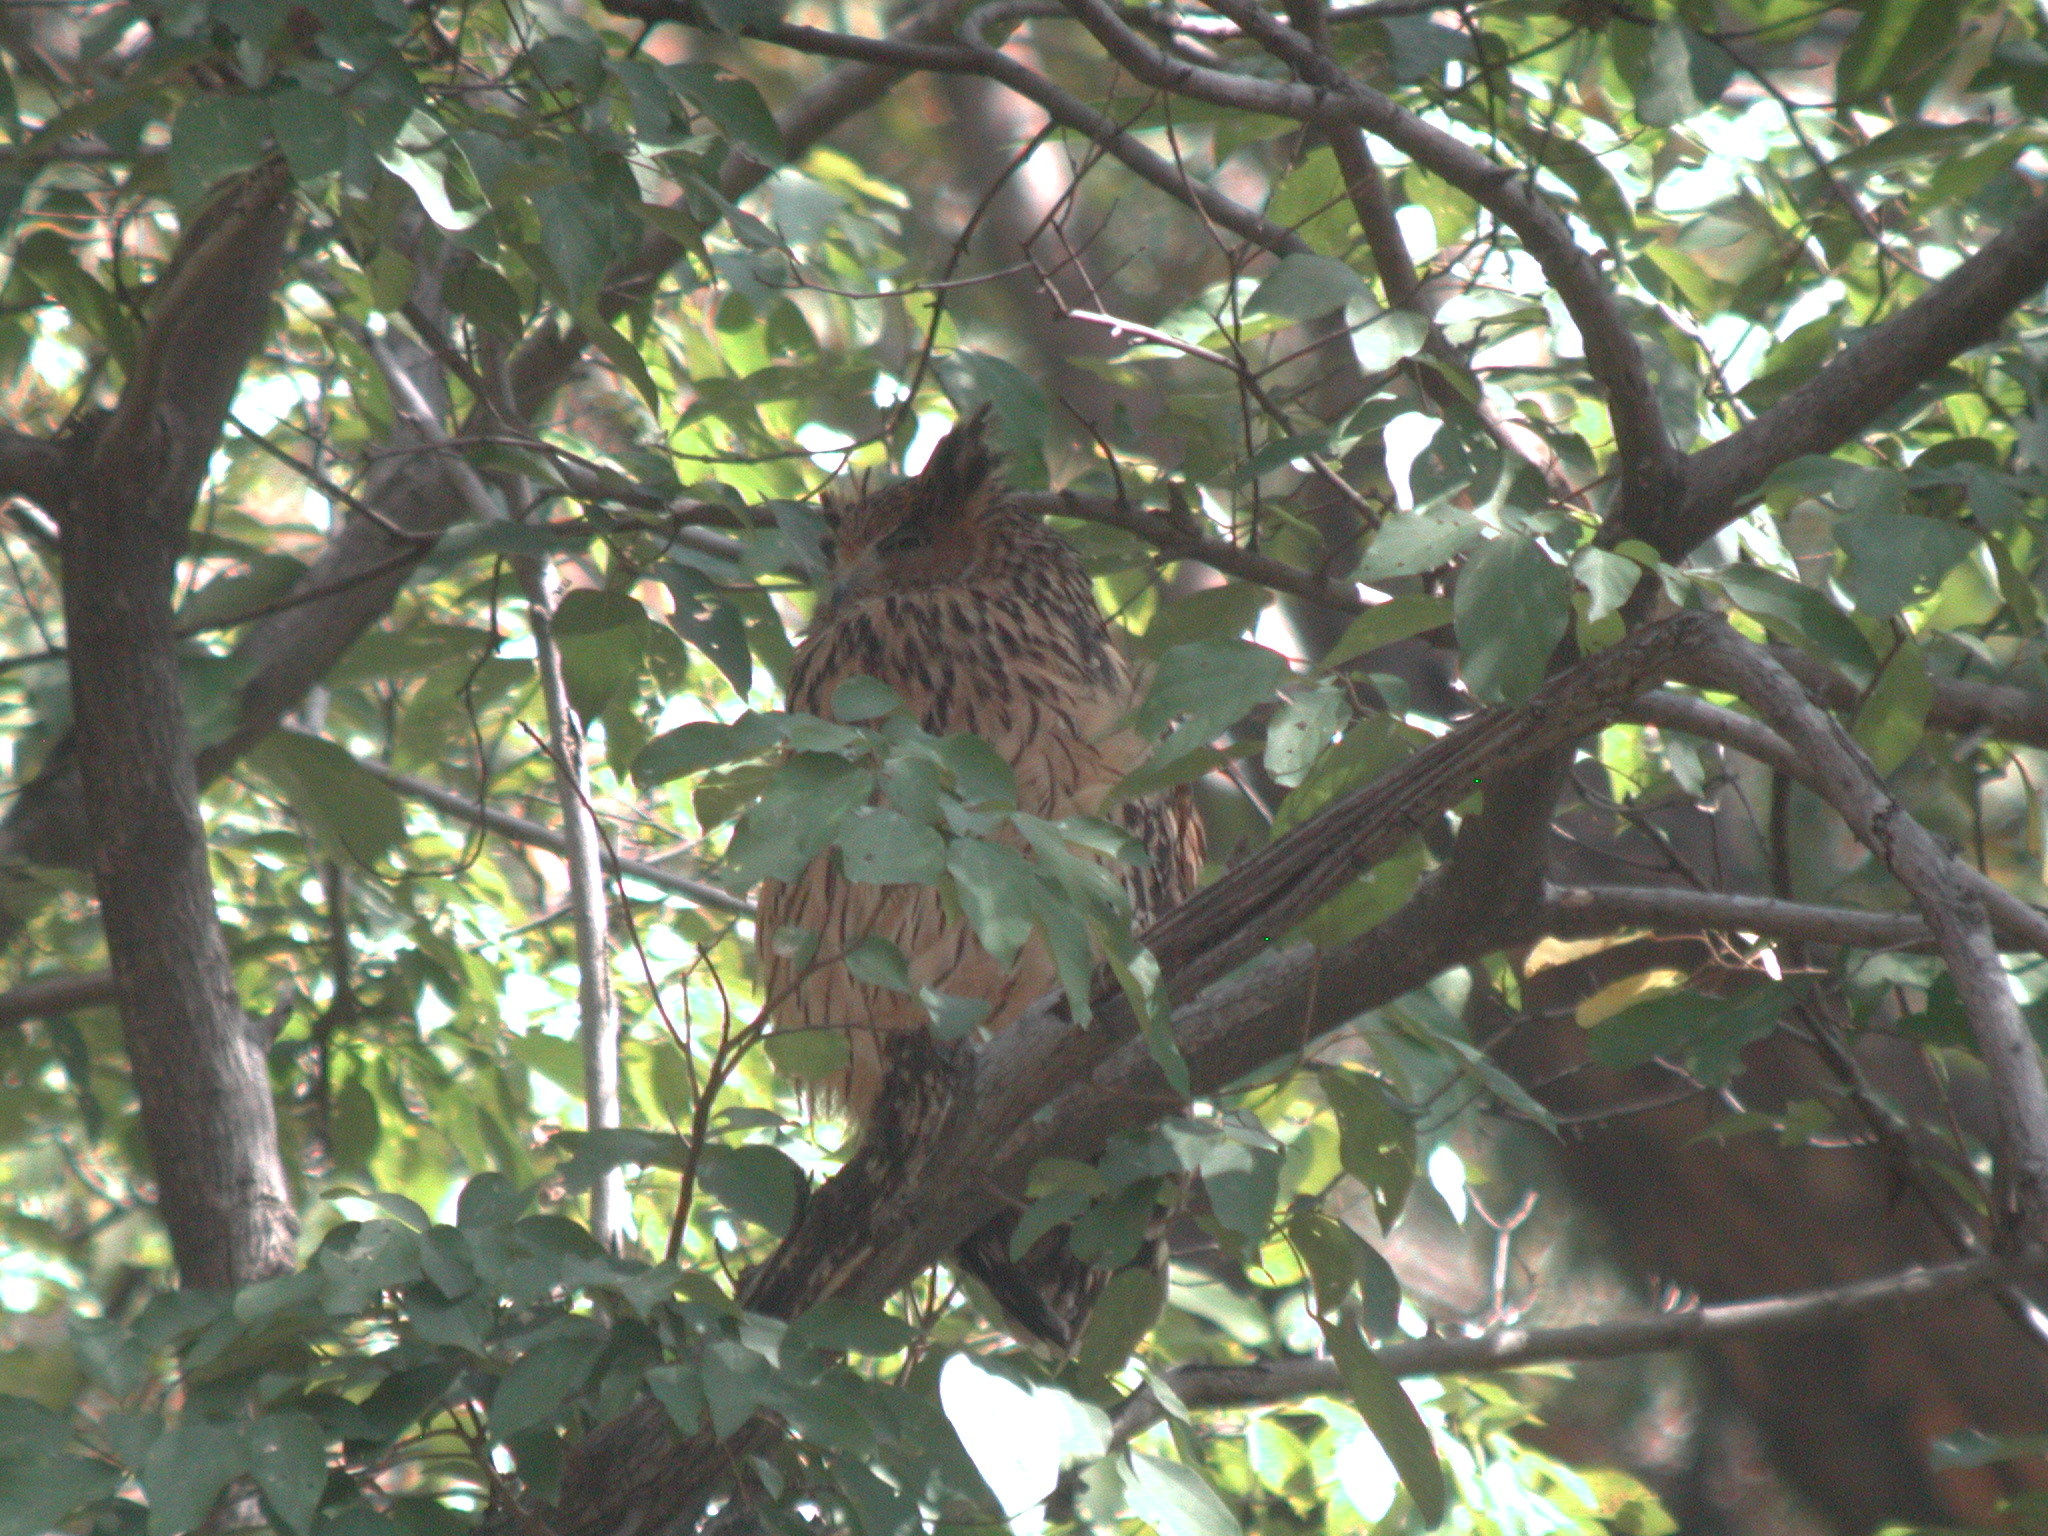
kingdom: Animalia
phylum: Chordata
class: Aves
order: Strigiformes
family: Strigidae
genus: Ketupa
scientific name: Ketupa flavipes
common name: Tawny fish owl
